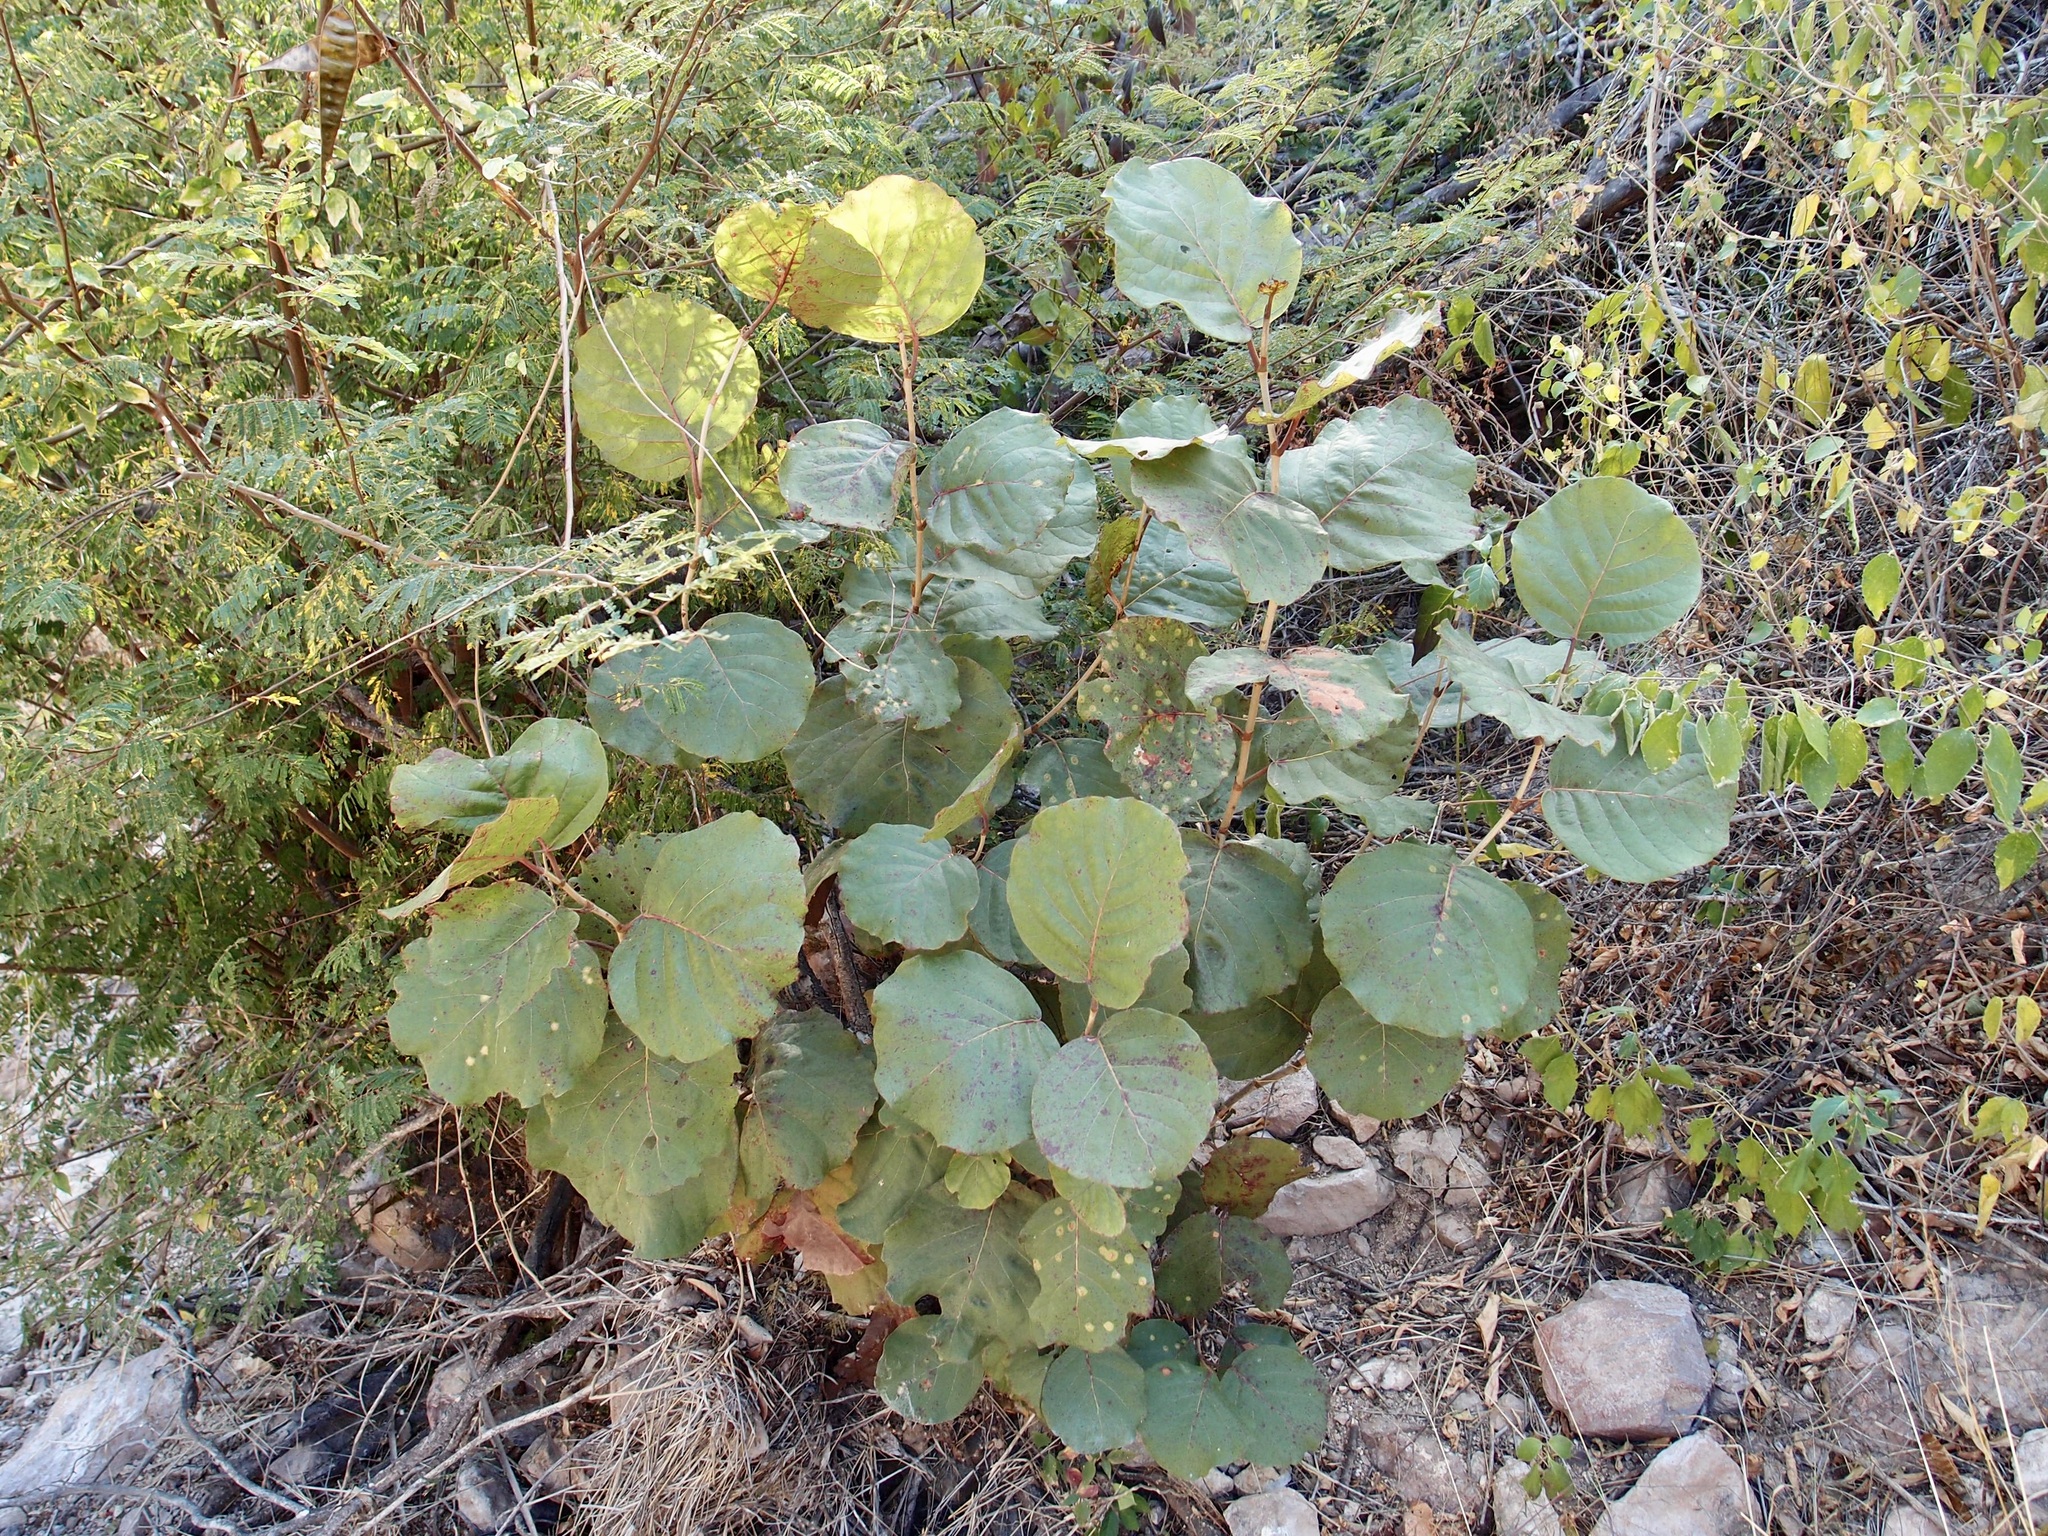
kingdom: Plantae
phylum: Tracheophyta
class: Magnoliopsida
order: Caryophyllales
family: Polygonaceae
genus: Coccoloba
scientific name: Coccoloba goldmanii
